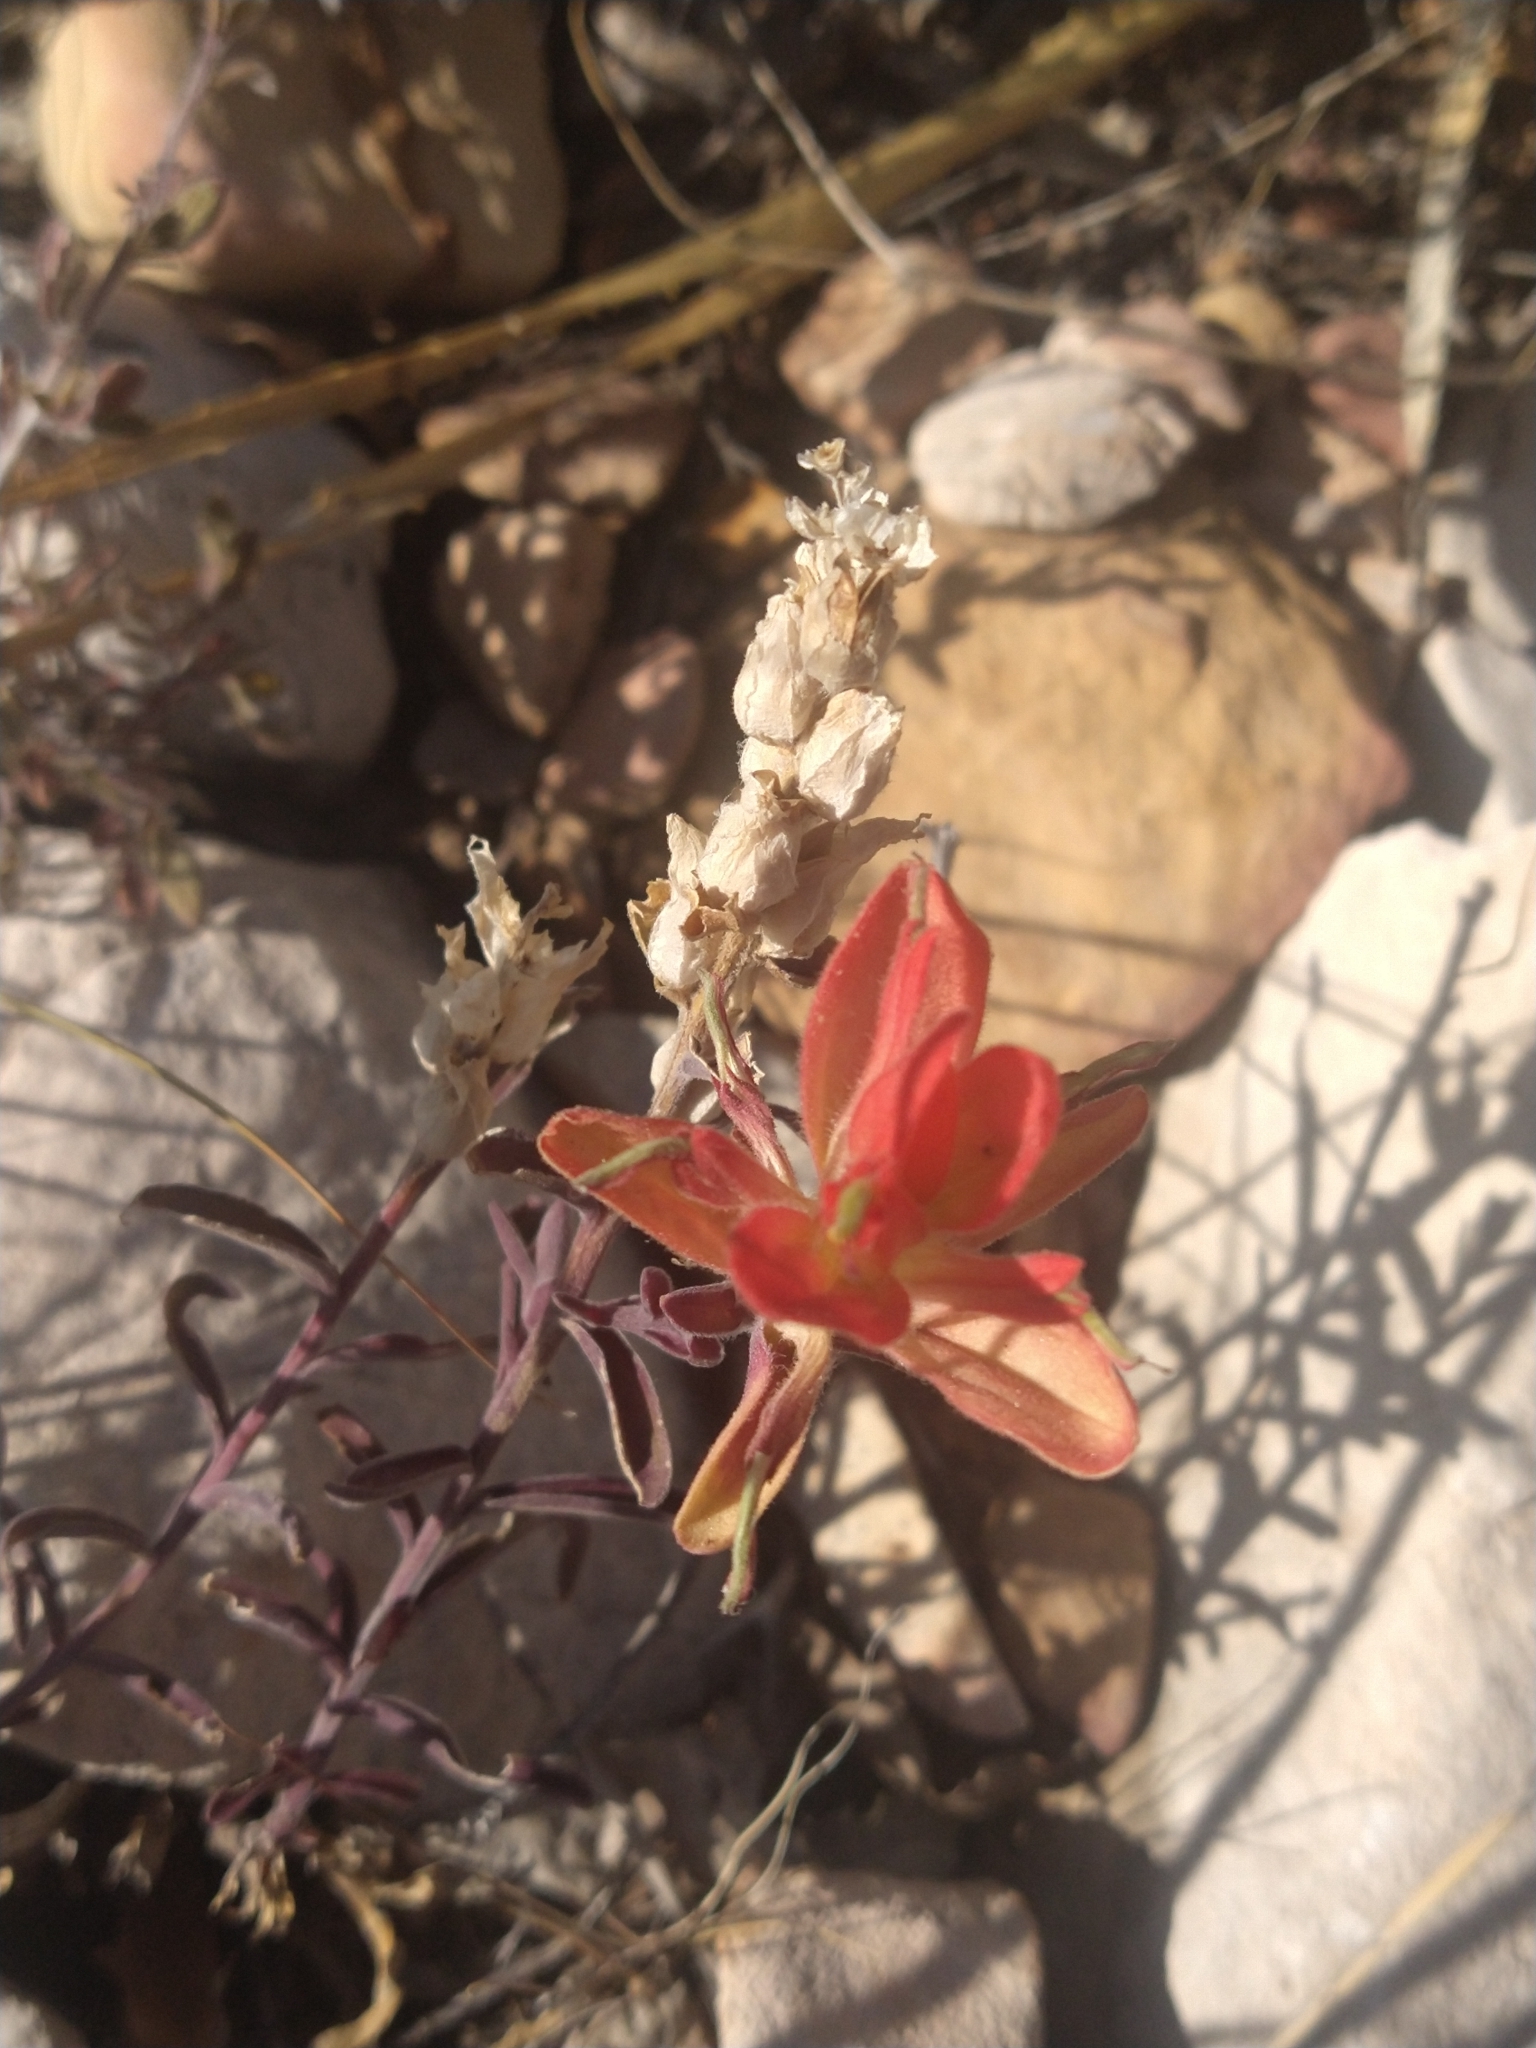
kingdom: Plantae
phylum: Tracheophyta
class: Magnoliopsida
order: Lamiales
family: Orobanchaceae
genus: Castilleja
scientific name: Castilleja integra
